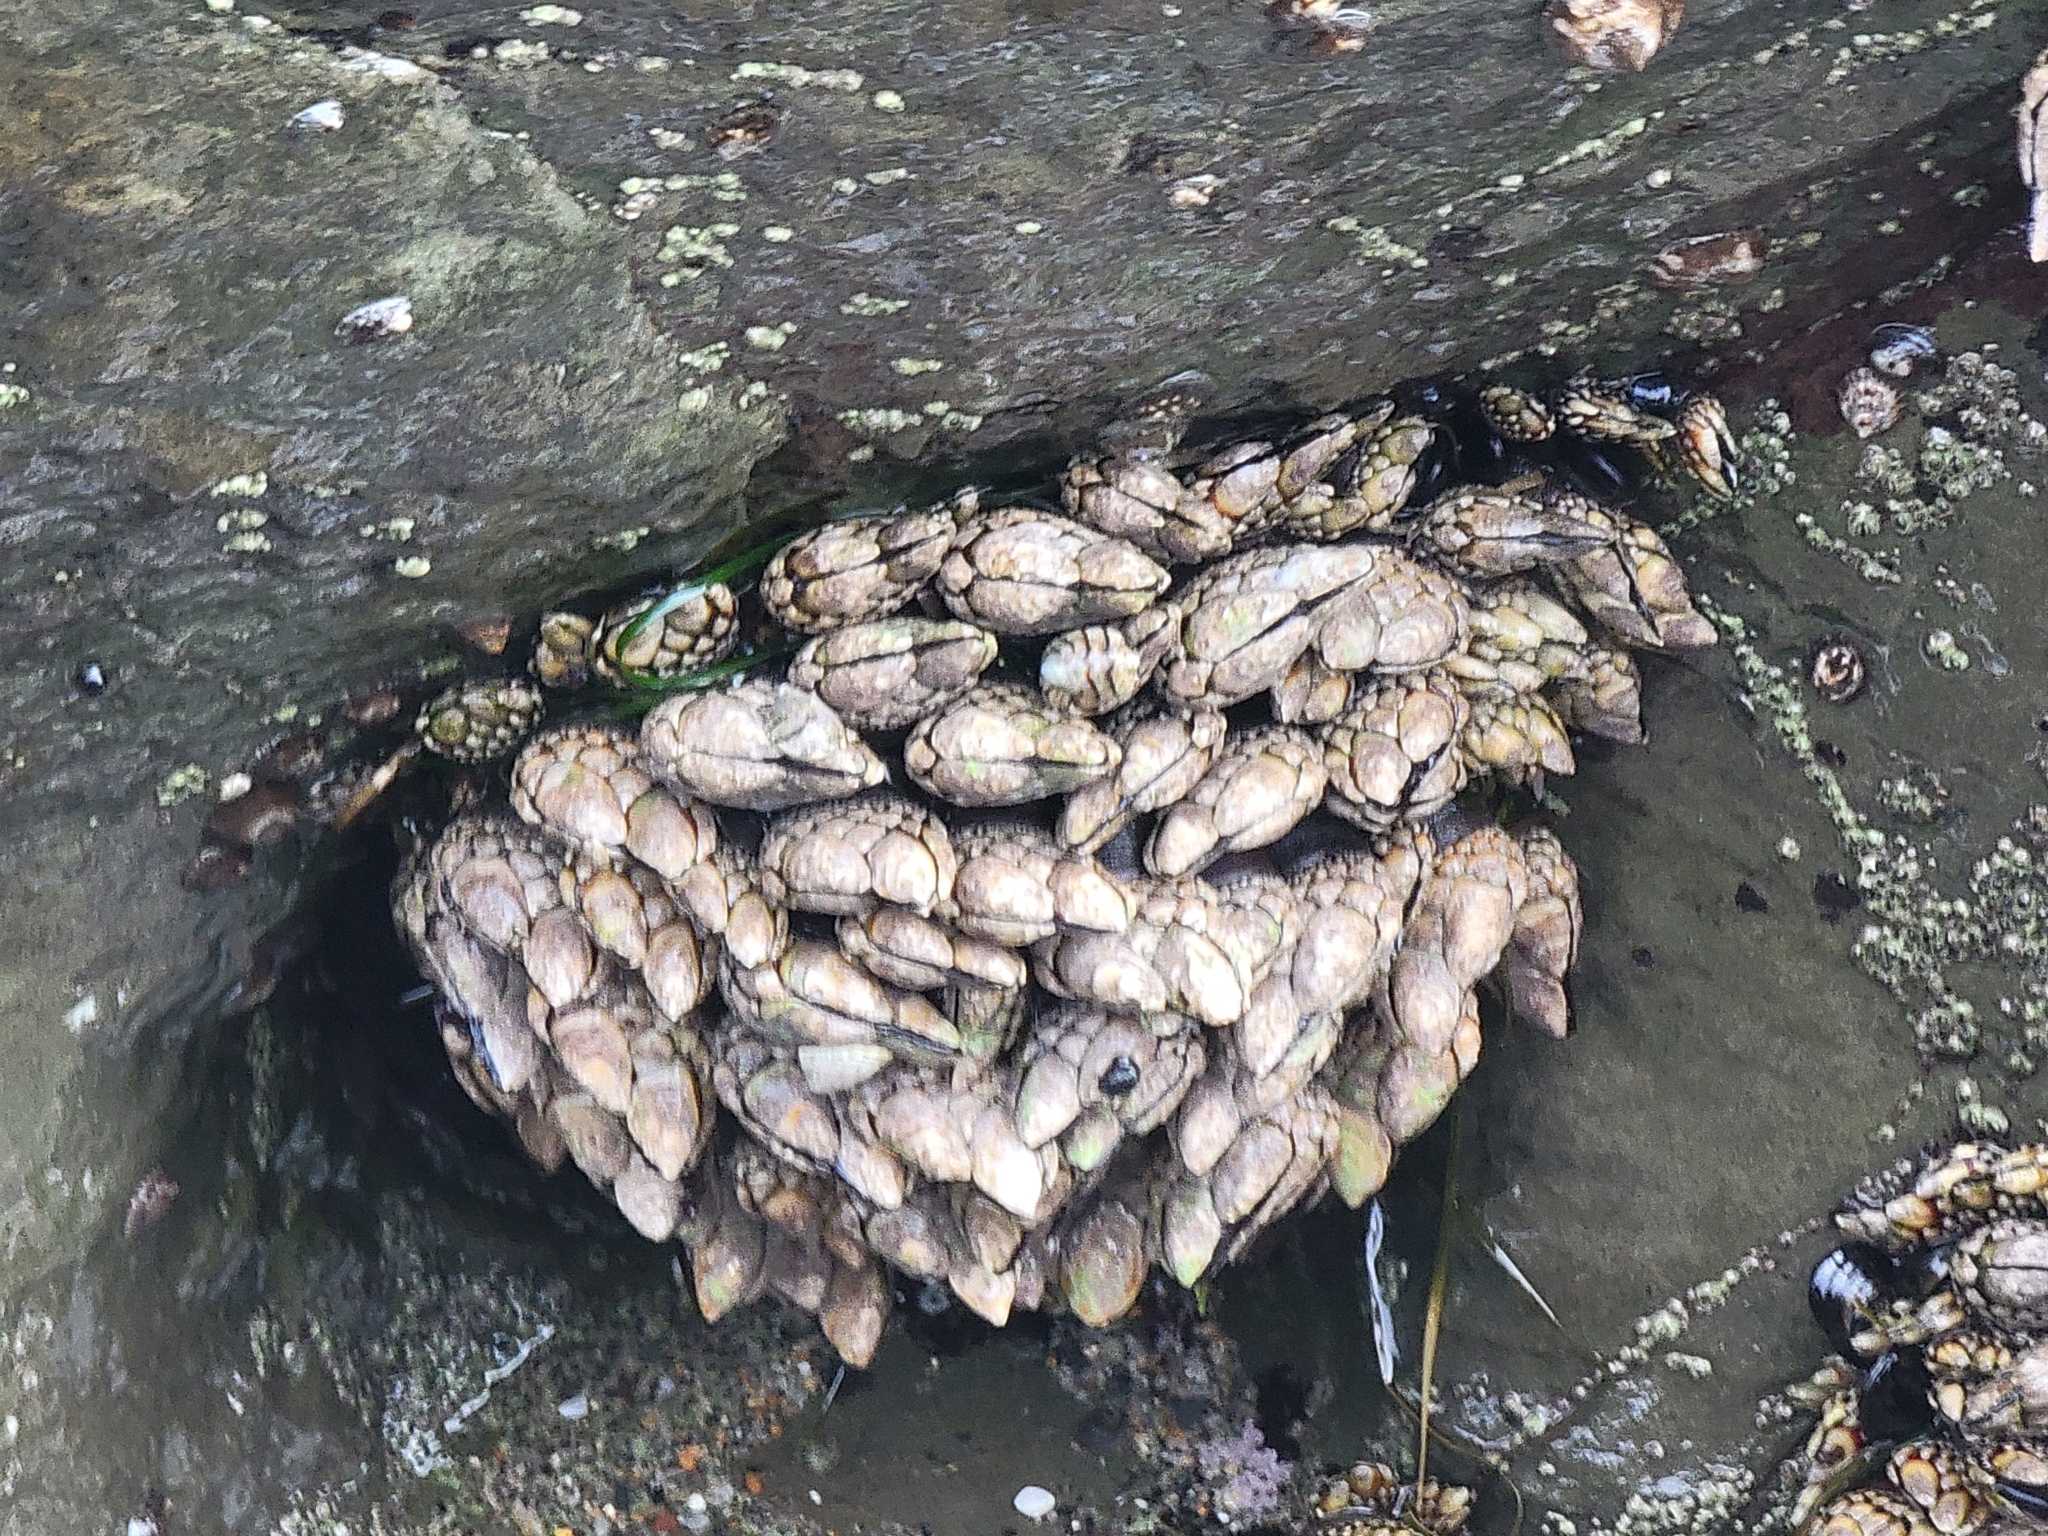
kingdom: Animalia
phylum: Arthropoda
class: Maxillopoda
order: Pedunculata
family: Pollicipedidae
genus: Pollicipes
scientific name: Pollicipes polymerus
